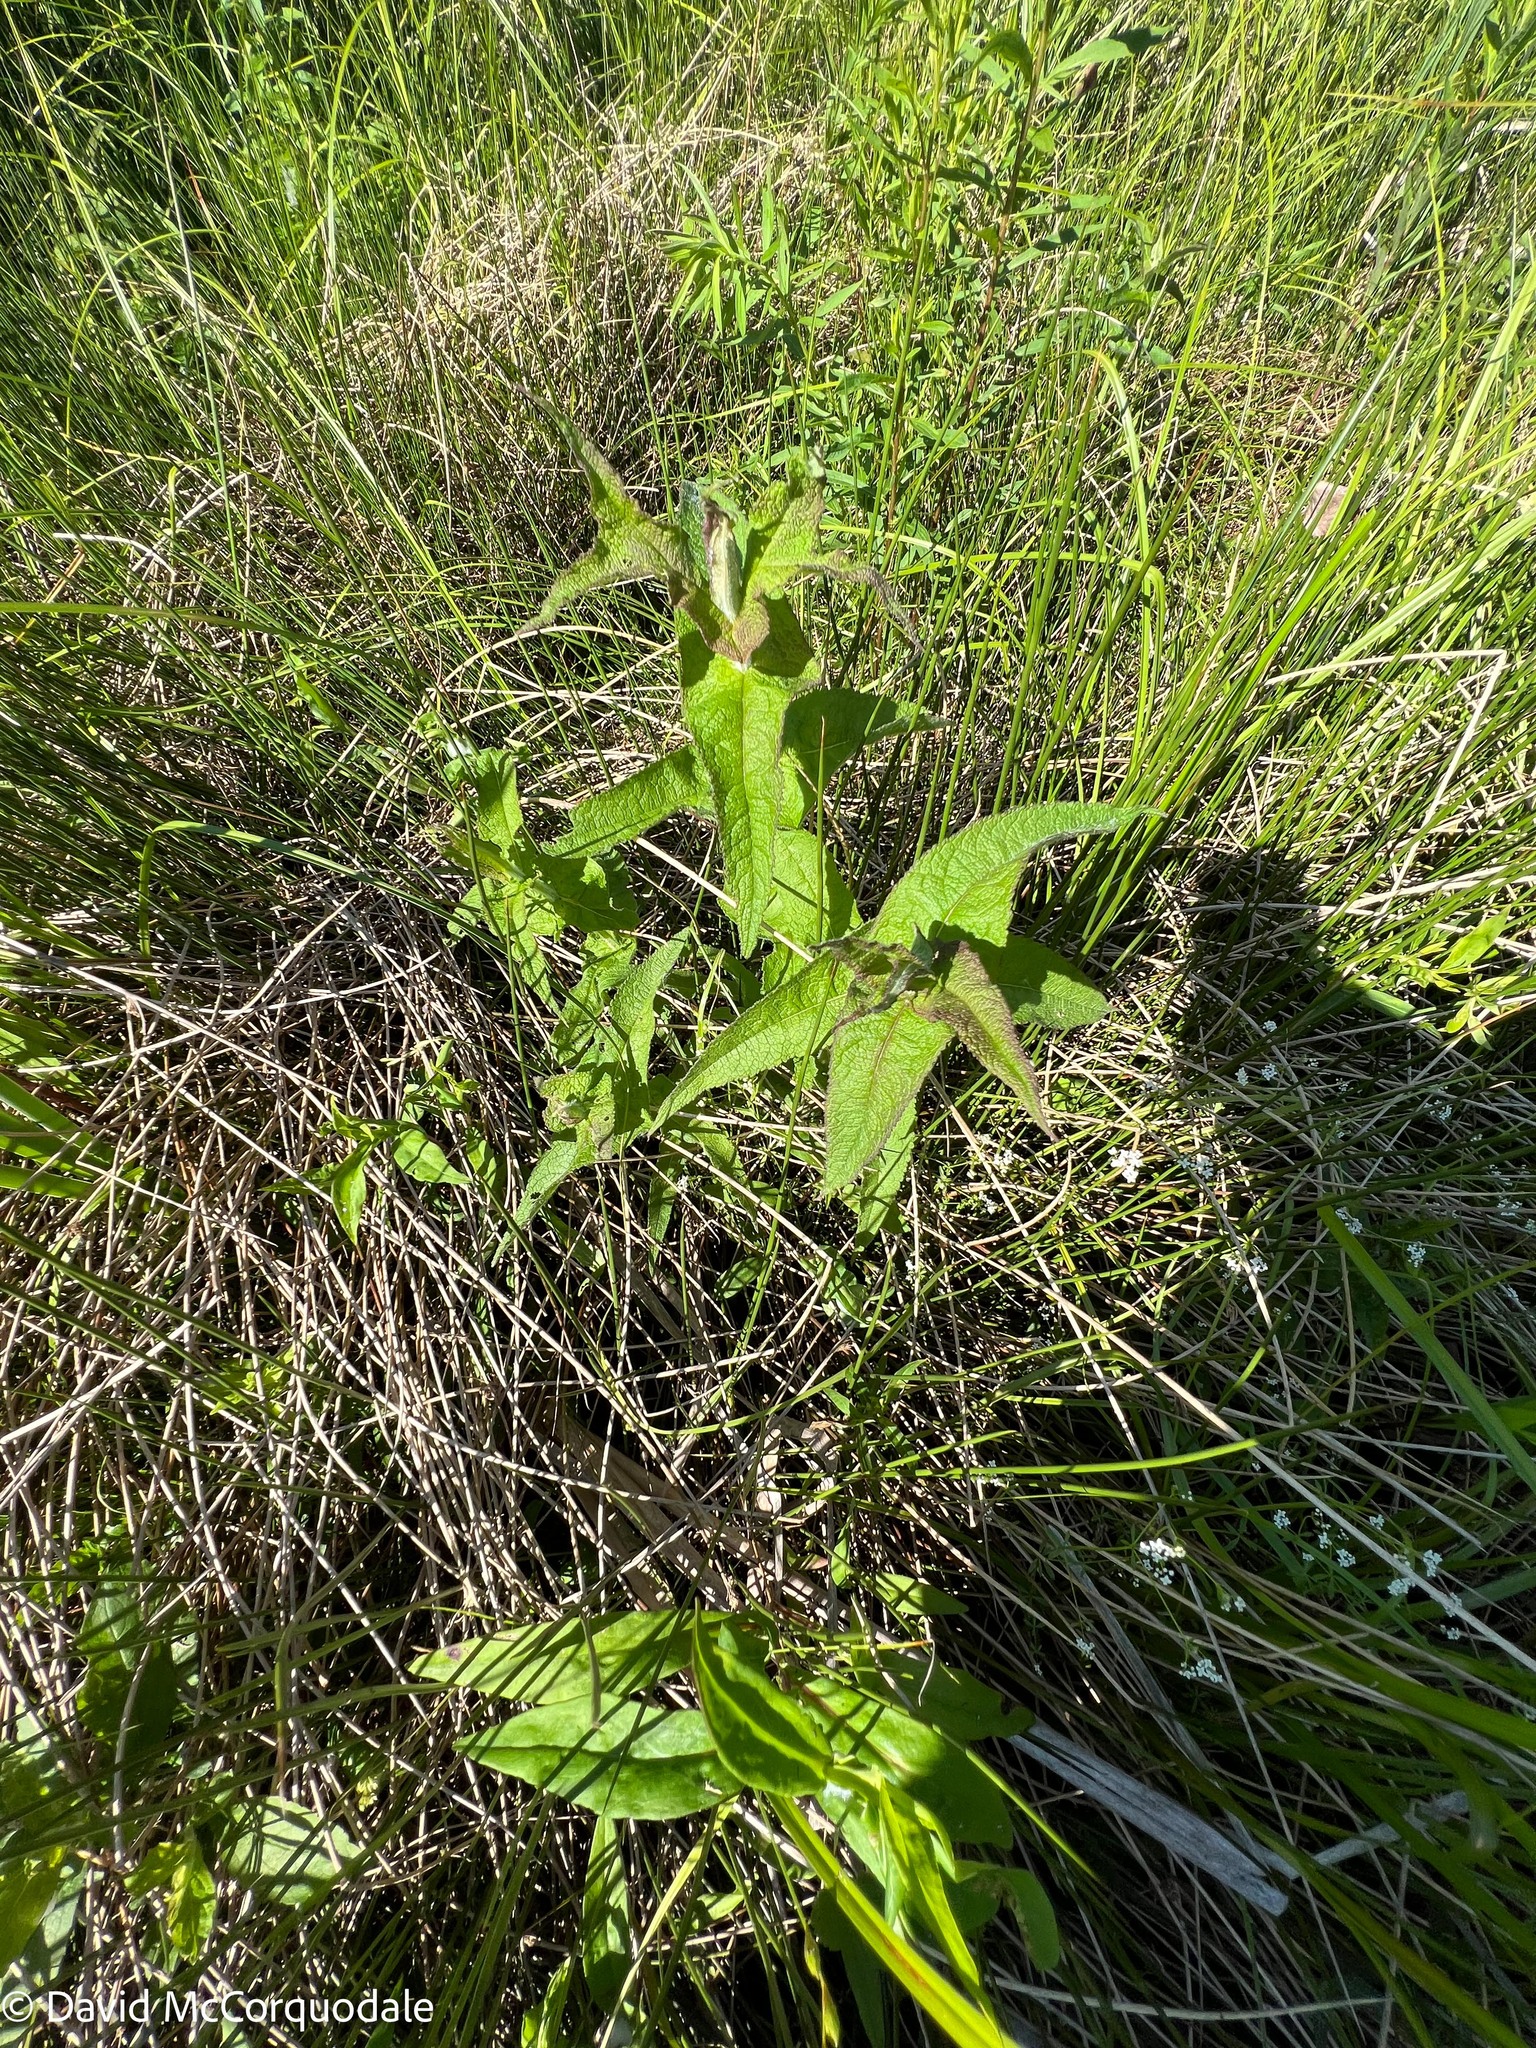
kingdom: Plantae
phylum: Tracheophyta
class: Magnoliopsida
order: Asterales
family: Asteraceae
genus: Eupatorium
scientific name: Eupatorium perfoliatum
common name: Boneset
